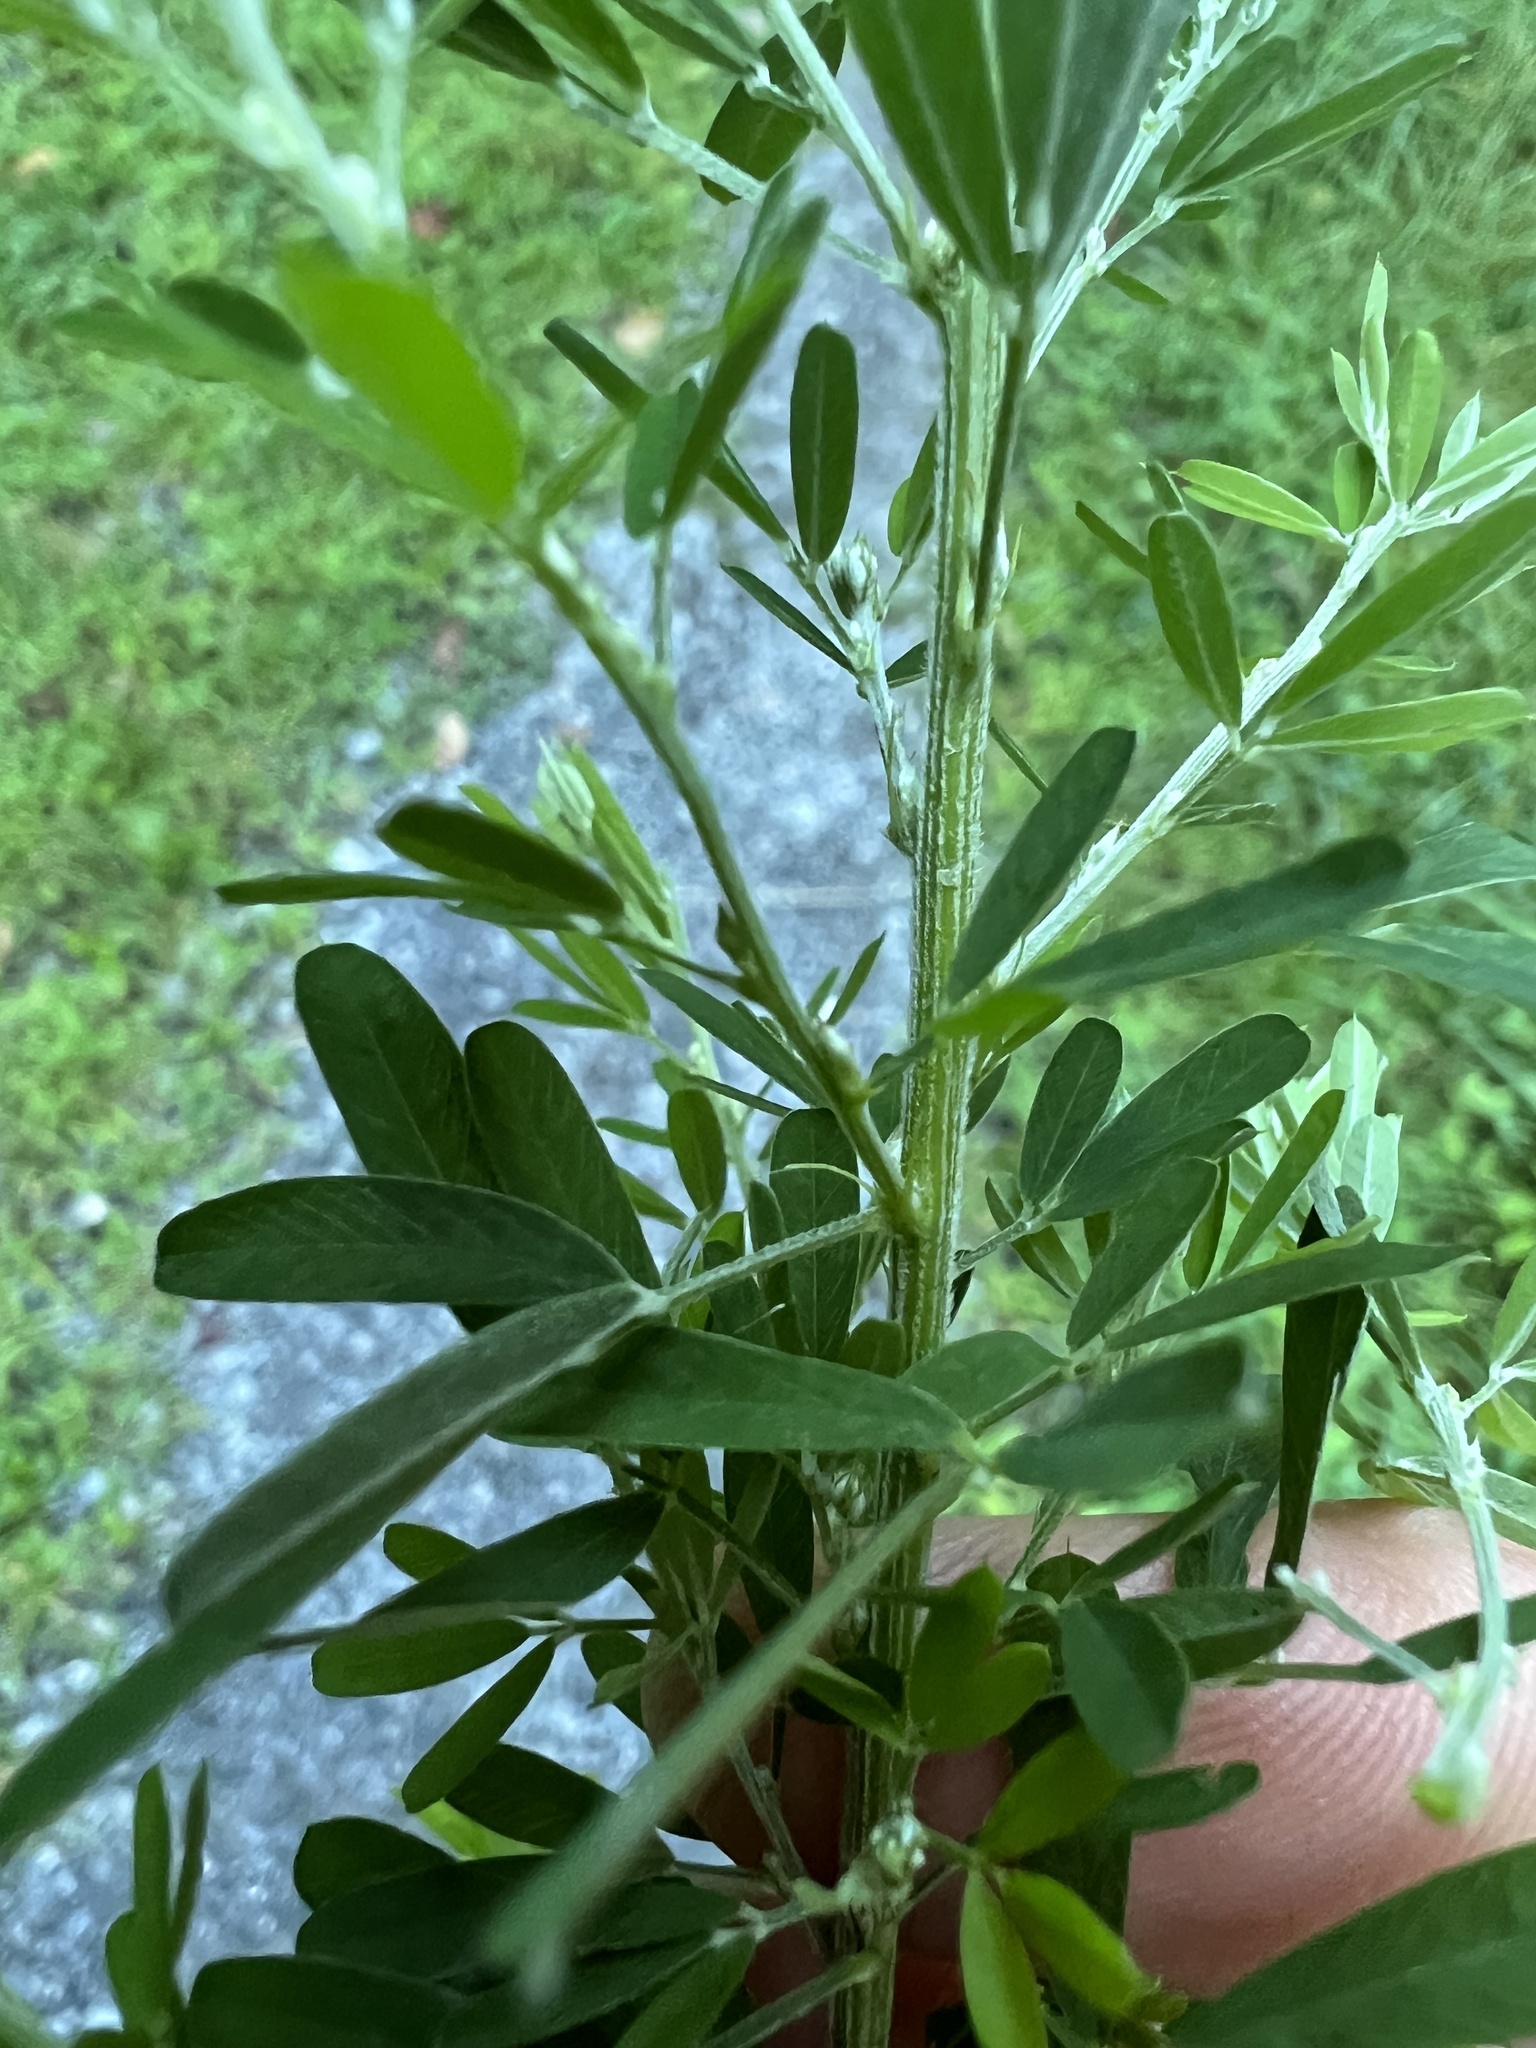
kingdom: Plantae
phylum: Tracheophyta
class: Magnoliopsida
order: Fabales
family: Fabaceae
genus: Lespedeza
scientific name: Lespedeza cuneata
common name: Chinese bush-clover
